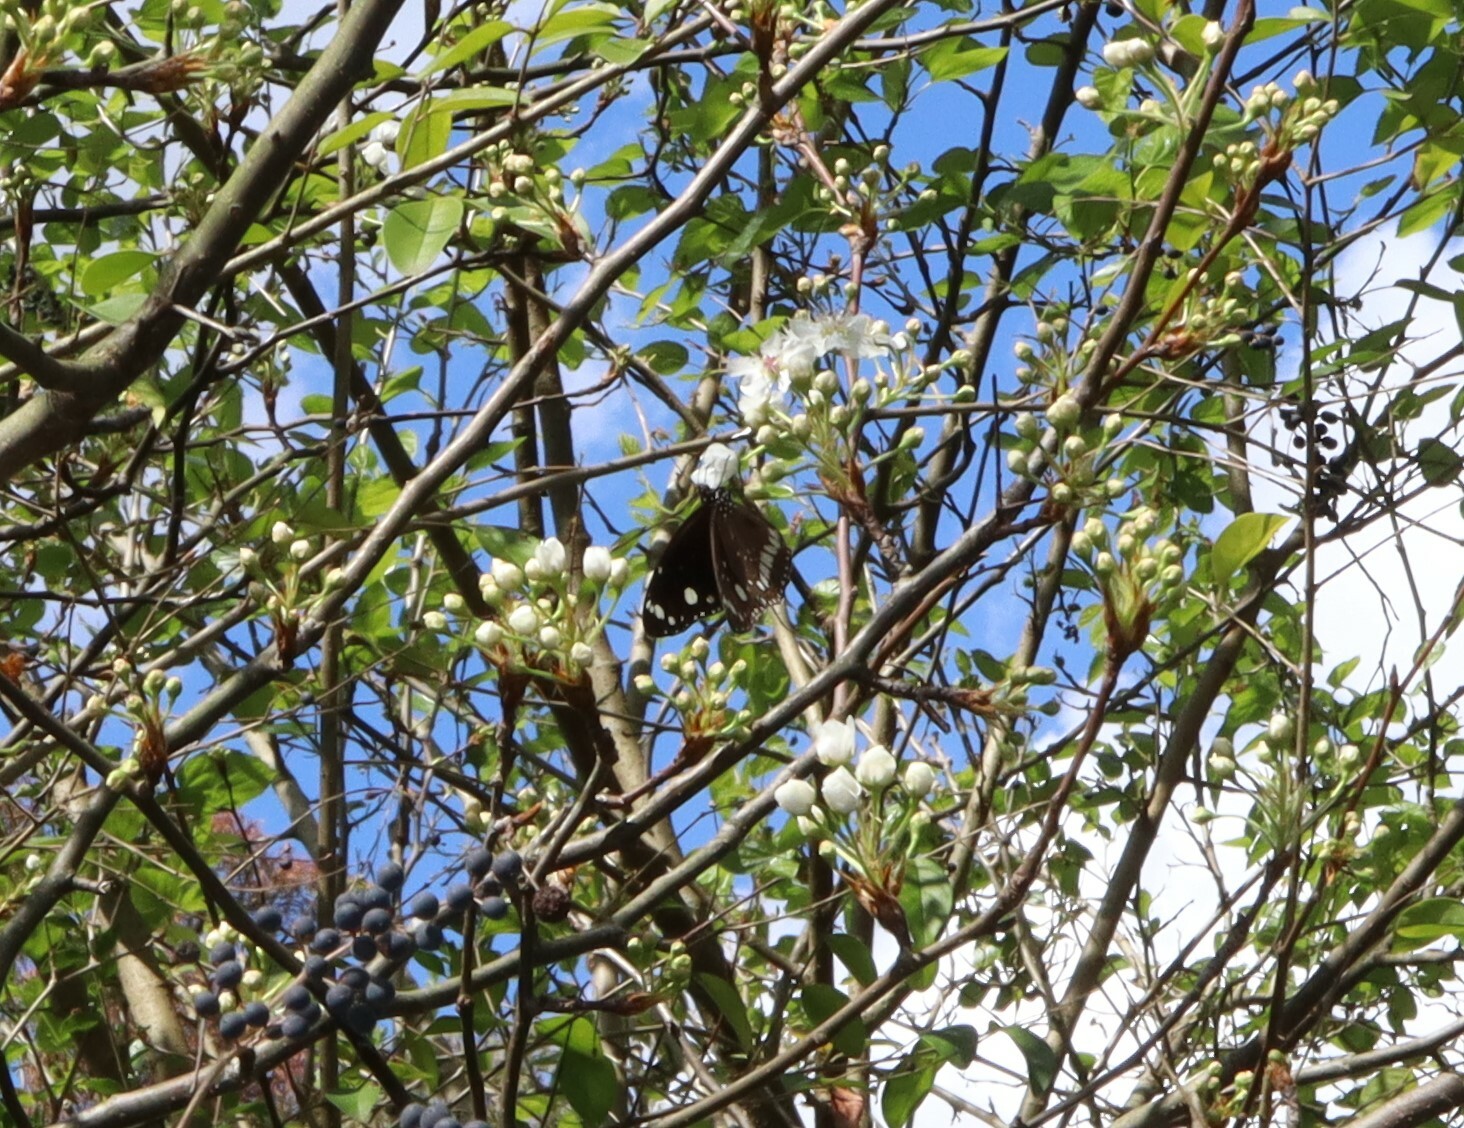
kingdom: Animalia
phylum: Arthropoda
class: Insecta
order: Lepidoptera
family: Nymphalidae
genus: Euploea
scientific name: Euploea core
